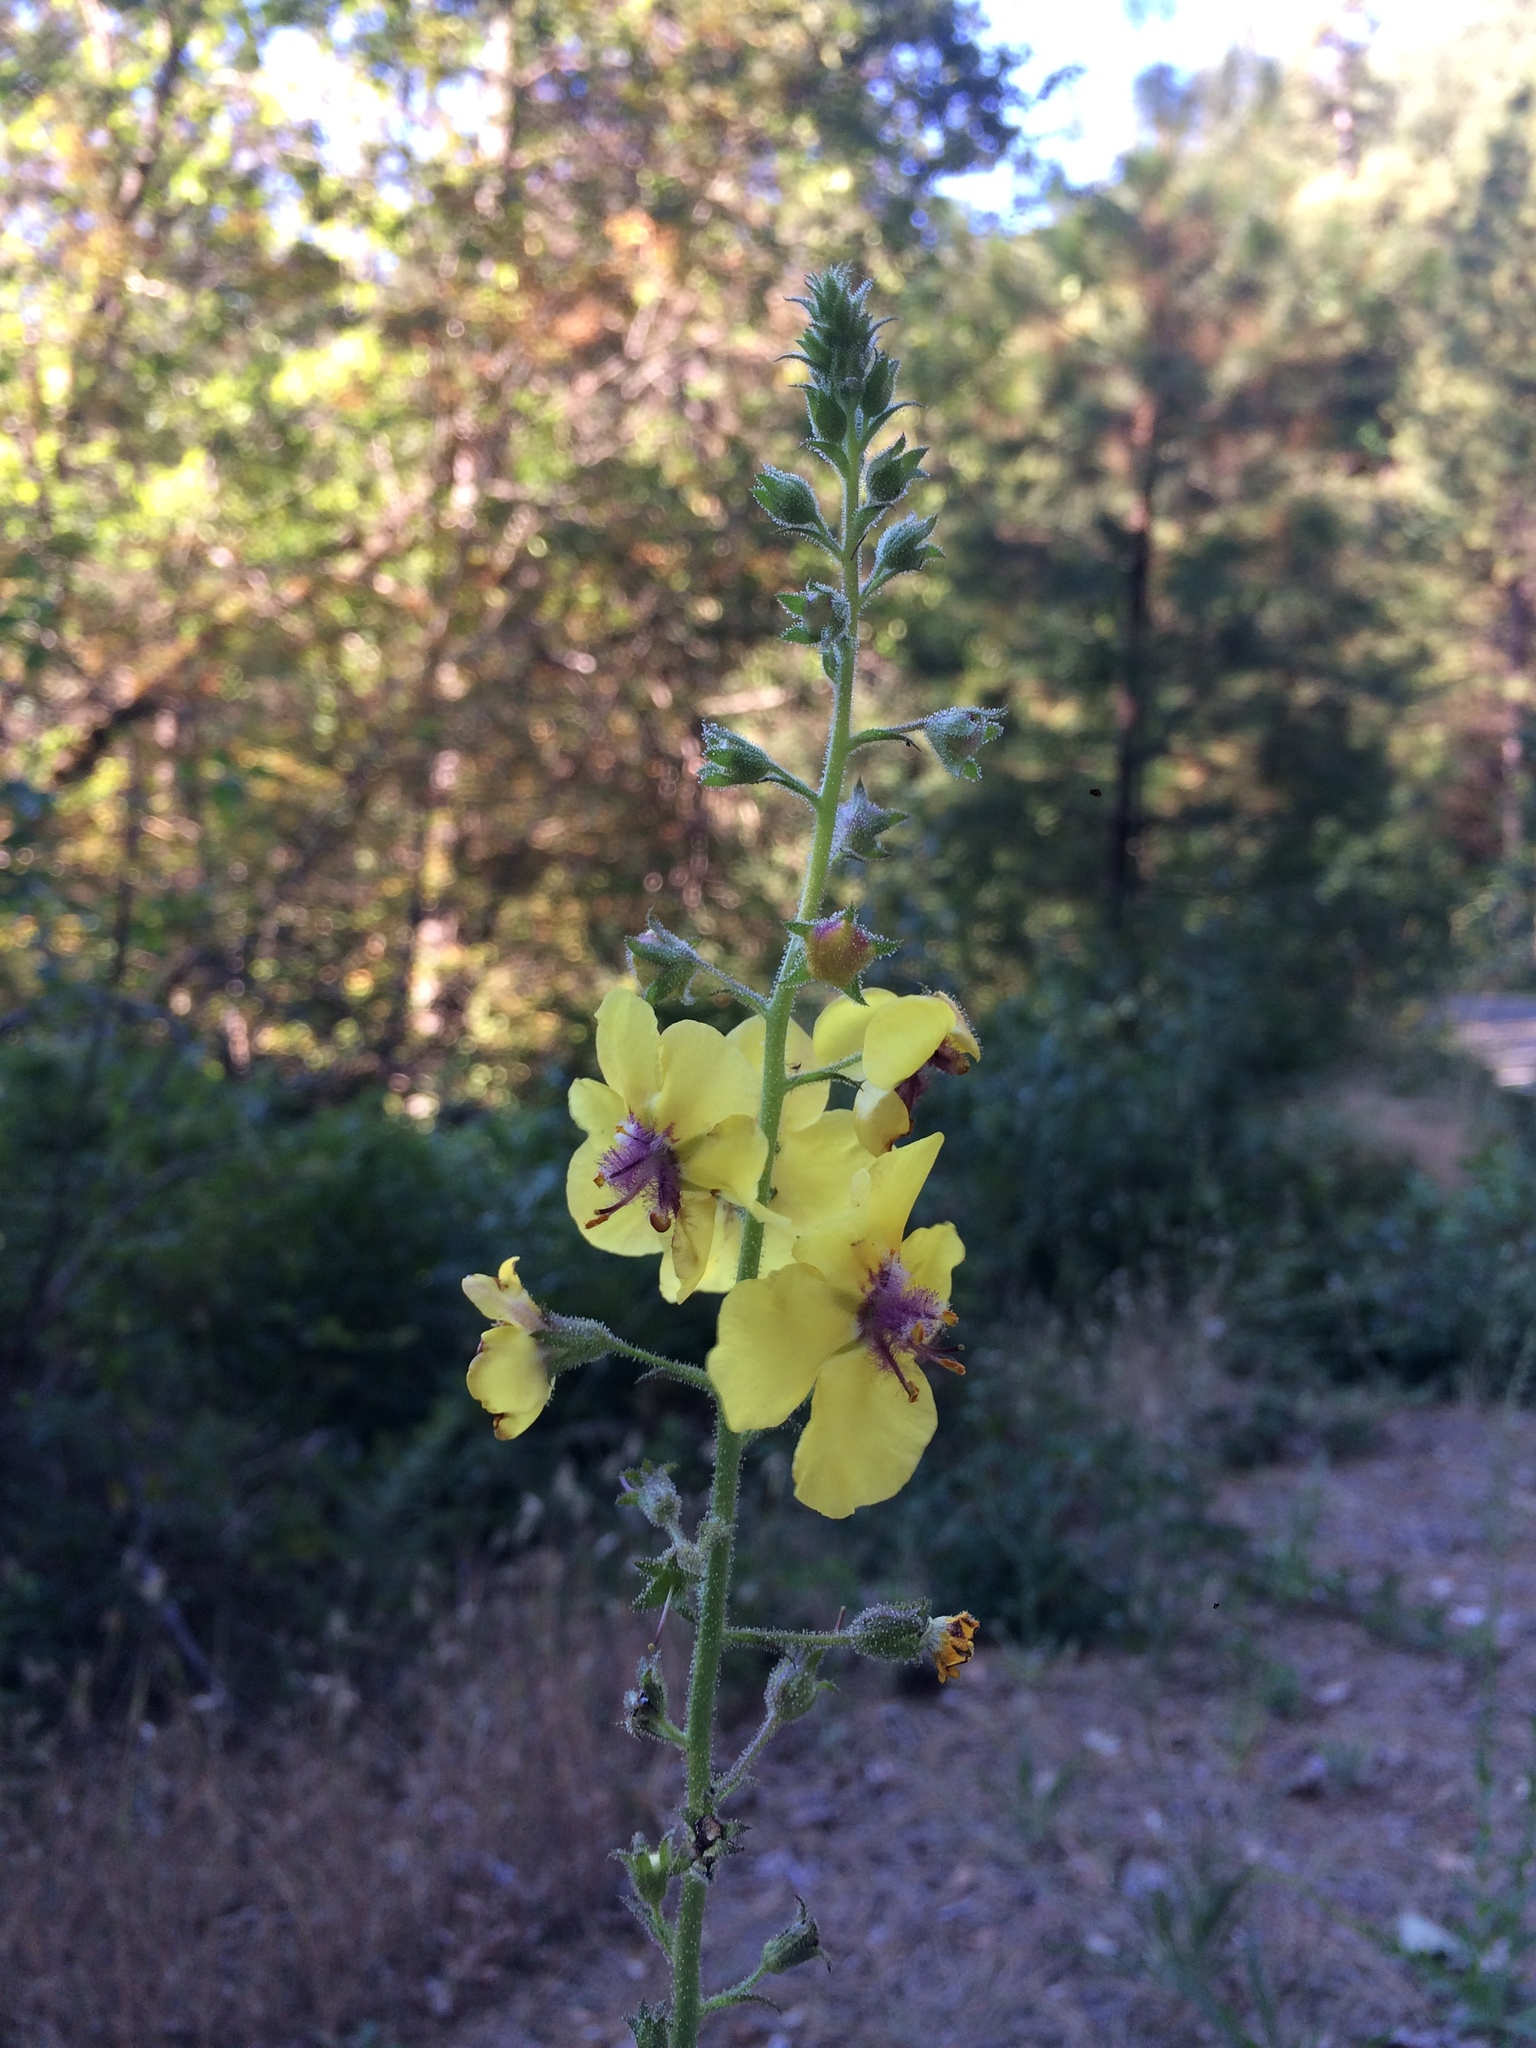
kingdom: Plantae
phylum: Tracheophyta
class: Magnoliopsida
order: Lamiales
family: Scrophulariaceae
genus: Verbascum
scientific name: Verbascum blattaria
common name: Moth mullein
